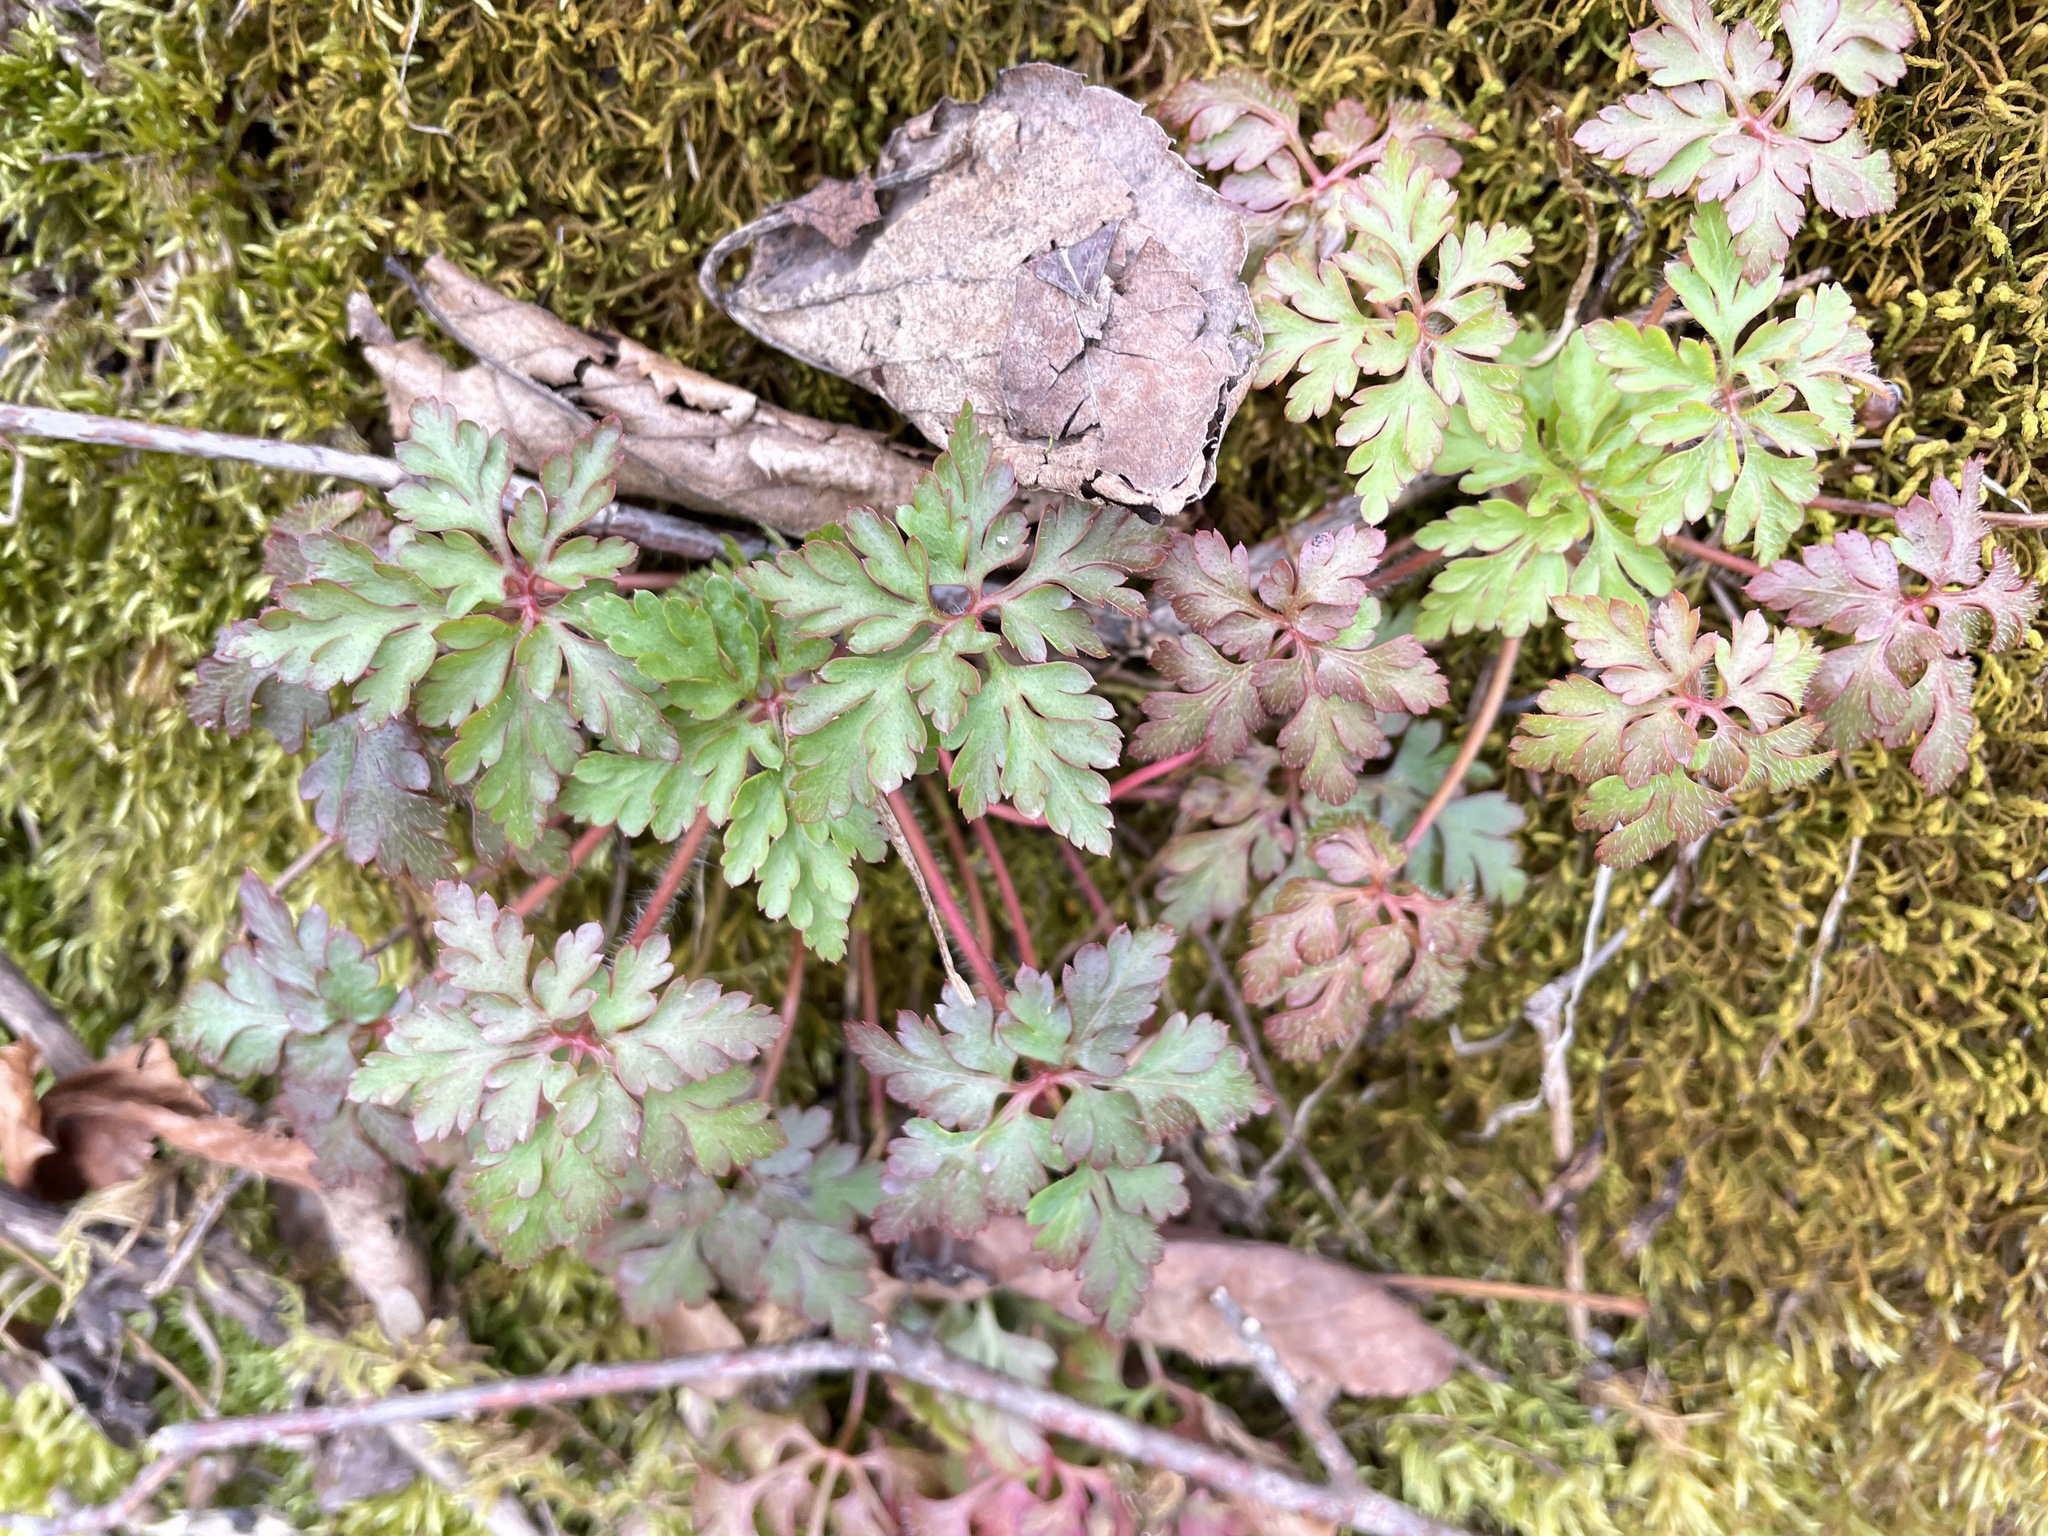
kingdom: Plantae
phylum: Tracheophyta
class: Magnoliopsida
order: Geraniales
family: Geraniaceae
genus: Geranium
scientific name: Geranium robertianum
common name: Herb-robert
